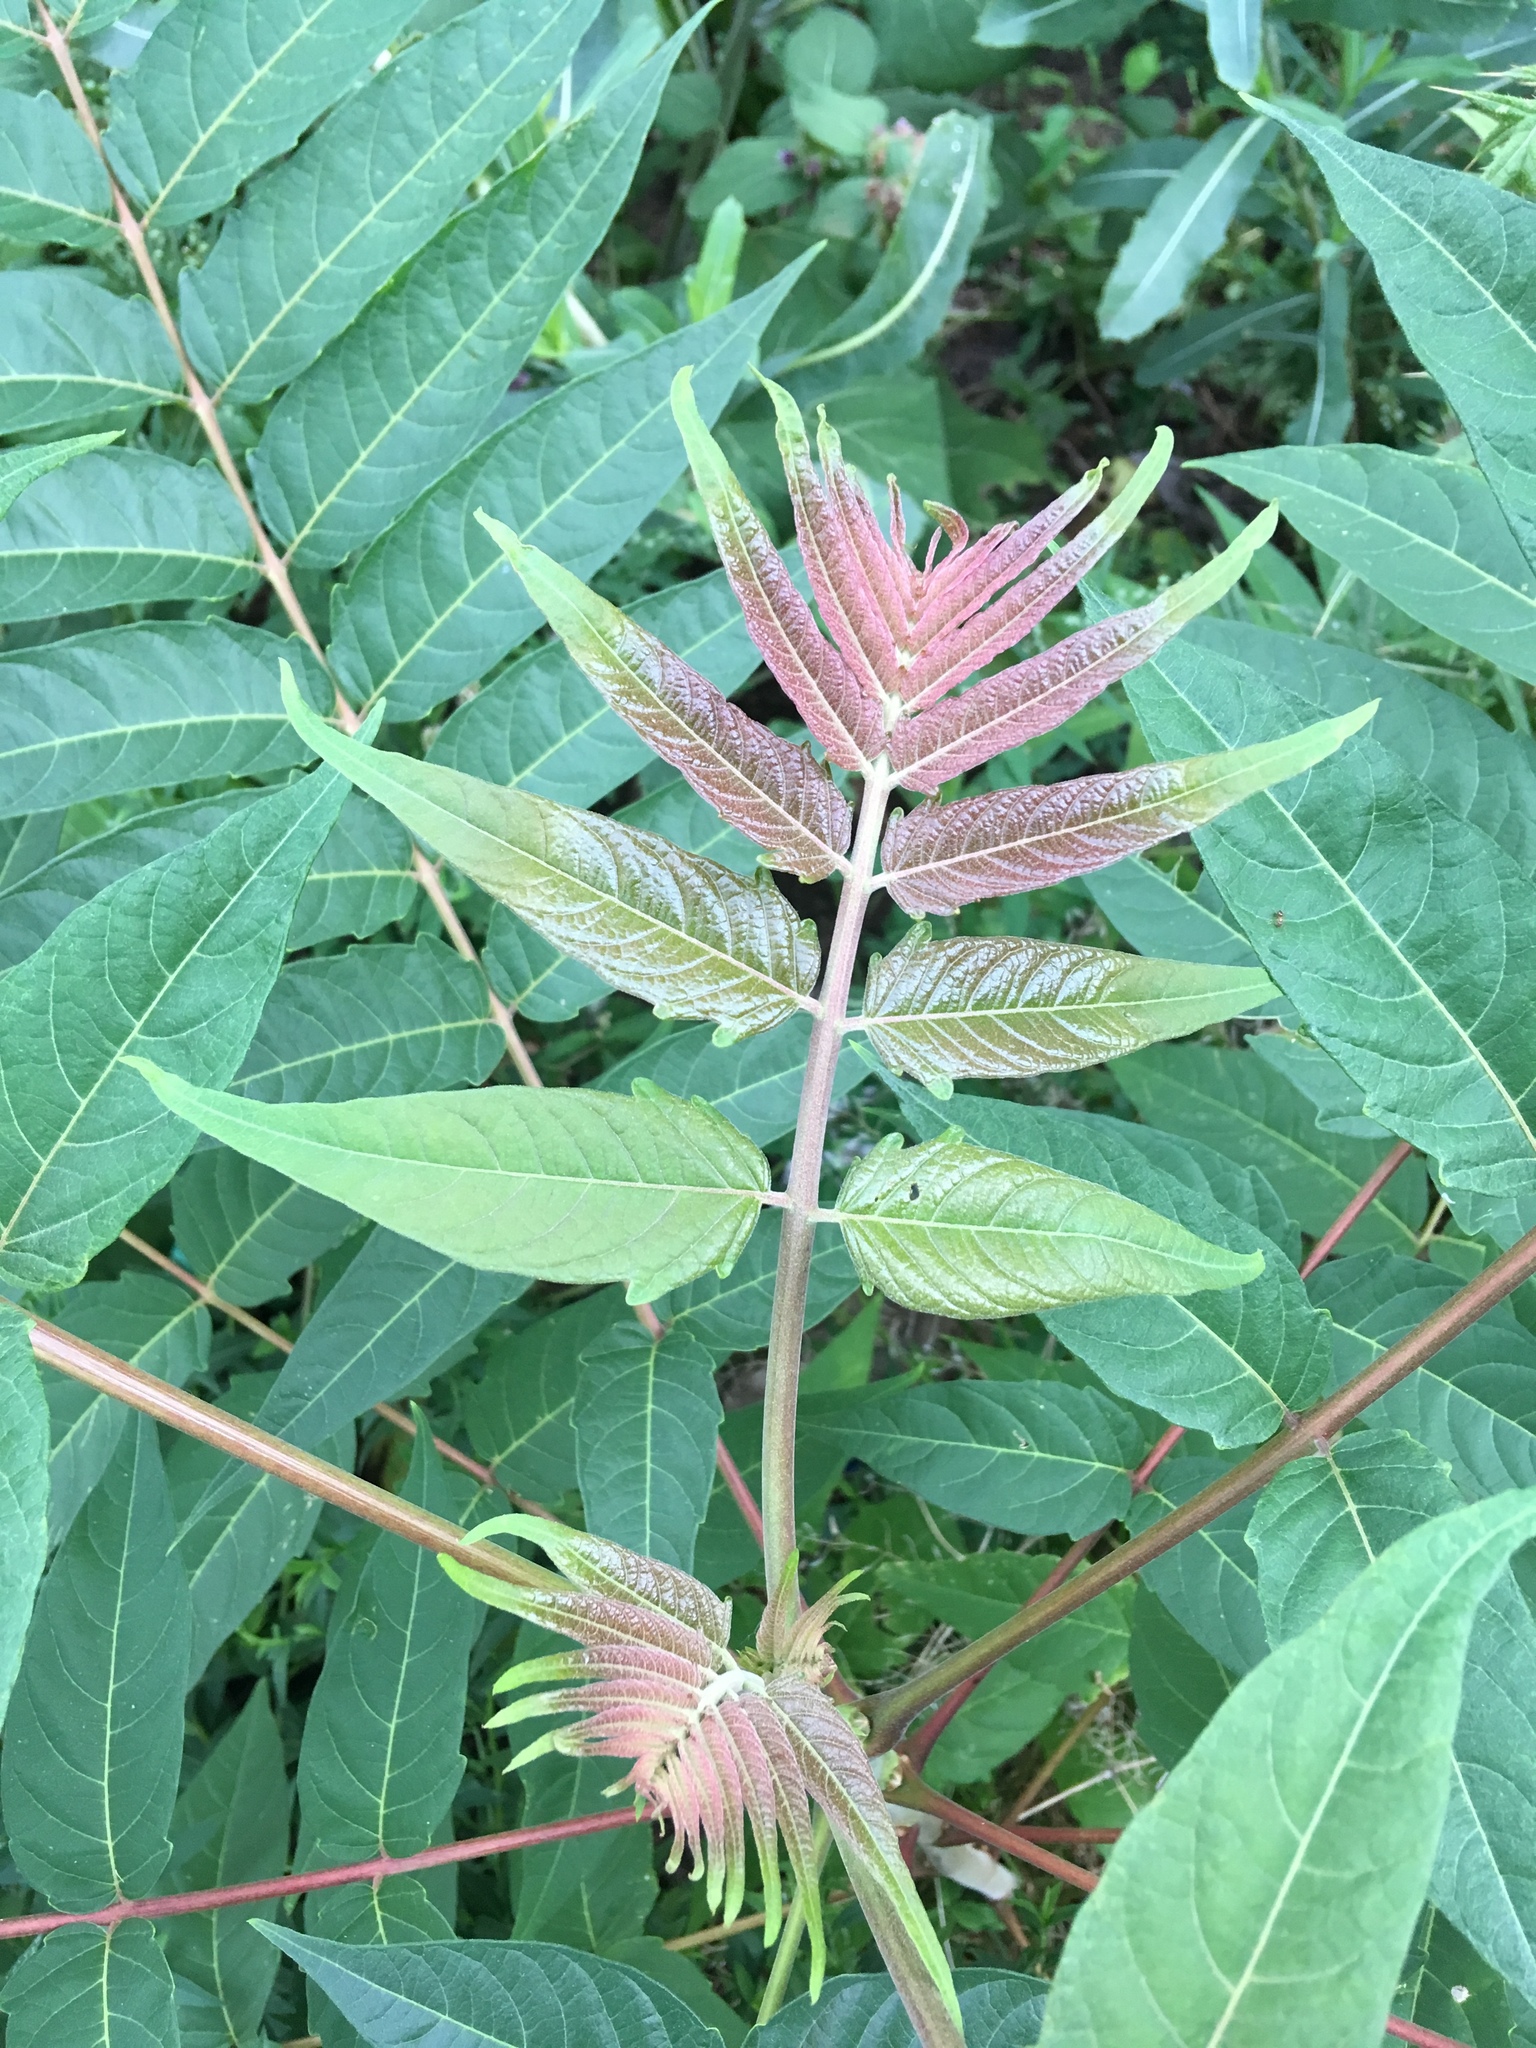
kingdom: Plantae
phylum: Tracheophyta
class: Magnoliopsida
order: Sapindales
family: Simaroubaceae
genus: Ailanthus
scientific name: Ailanthus altissima
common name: Tree-of-heaven
